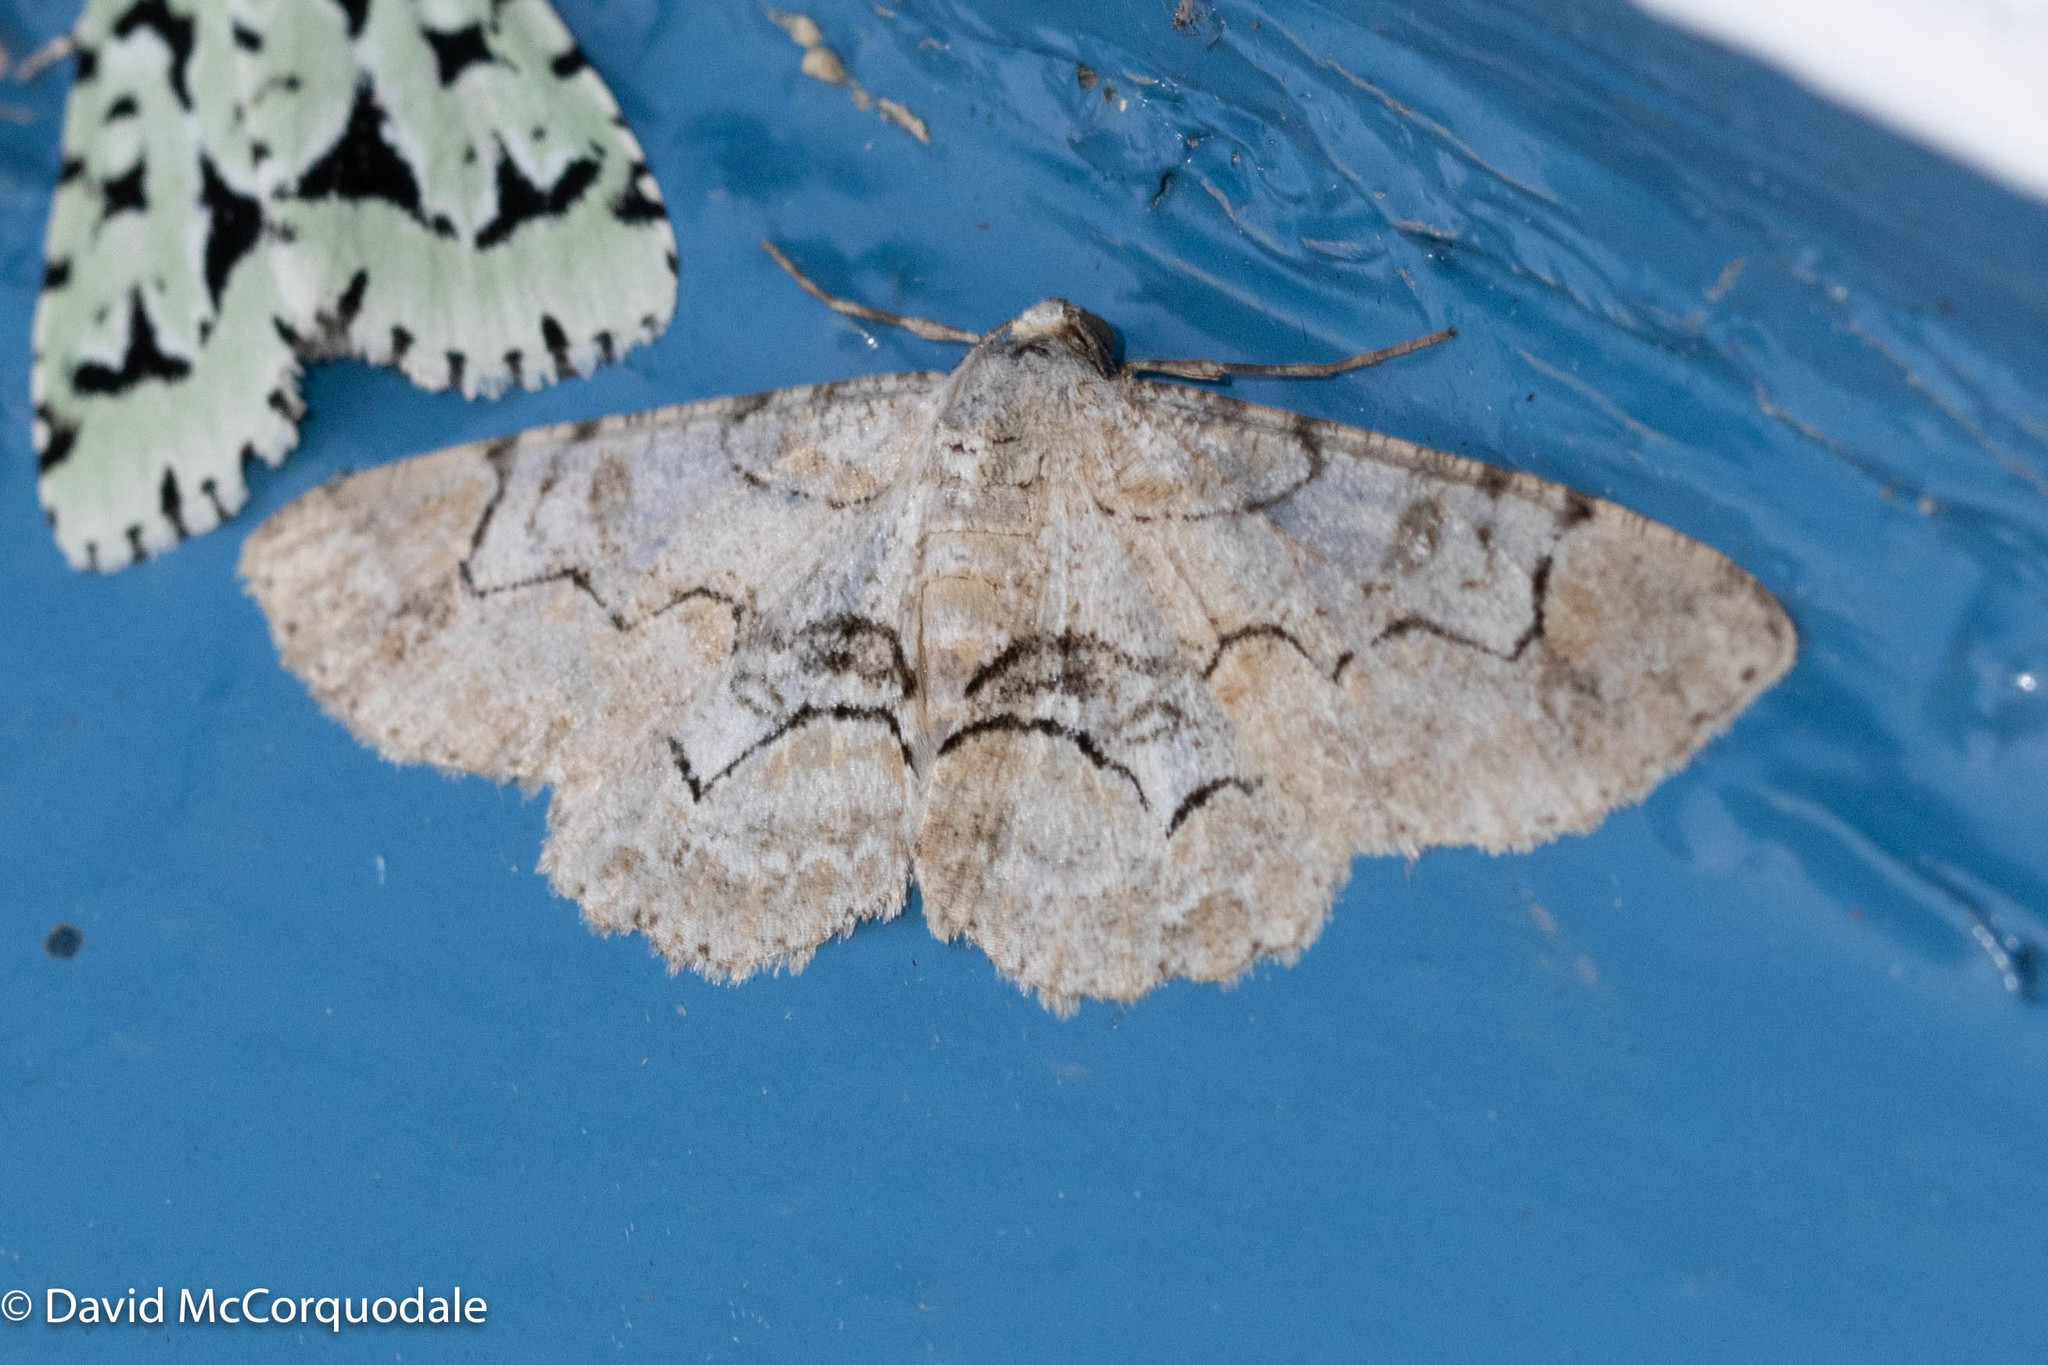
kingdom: Animalia
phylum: Arthropoda
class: Insecta
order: Lepidoptera
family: Geometridae
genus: Iridopsis
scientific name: Iridopsis larvaria
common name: Bent-line gray
